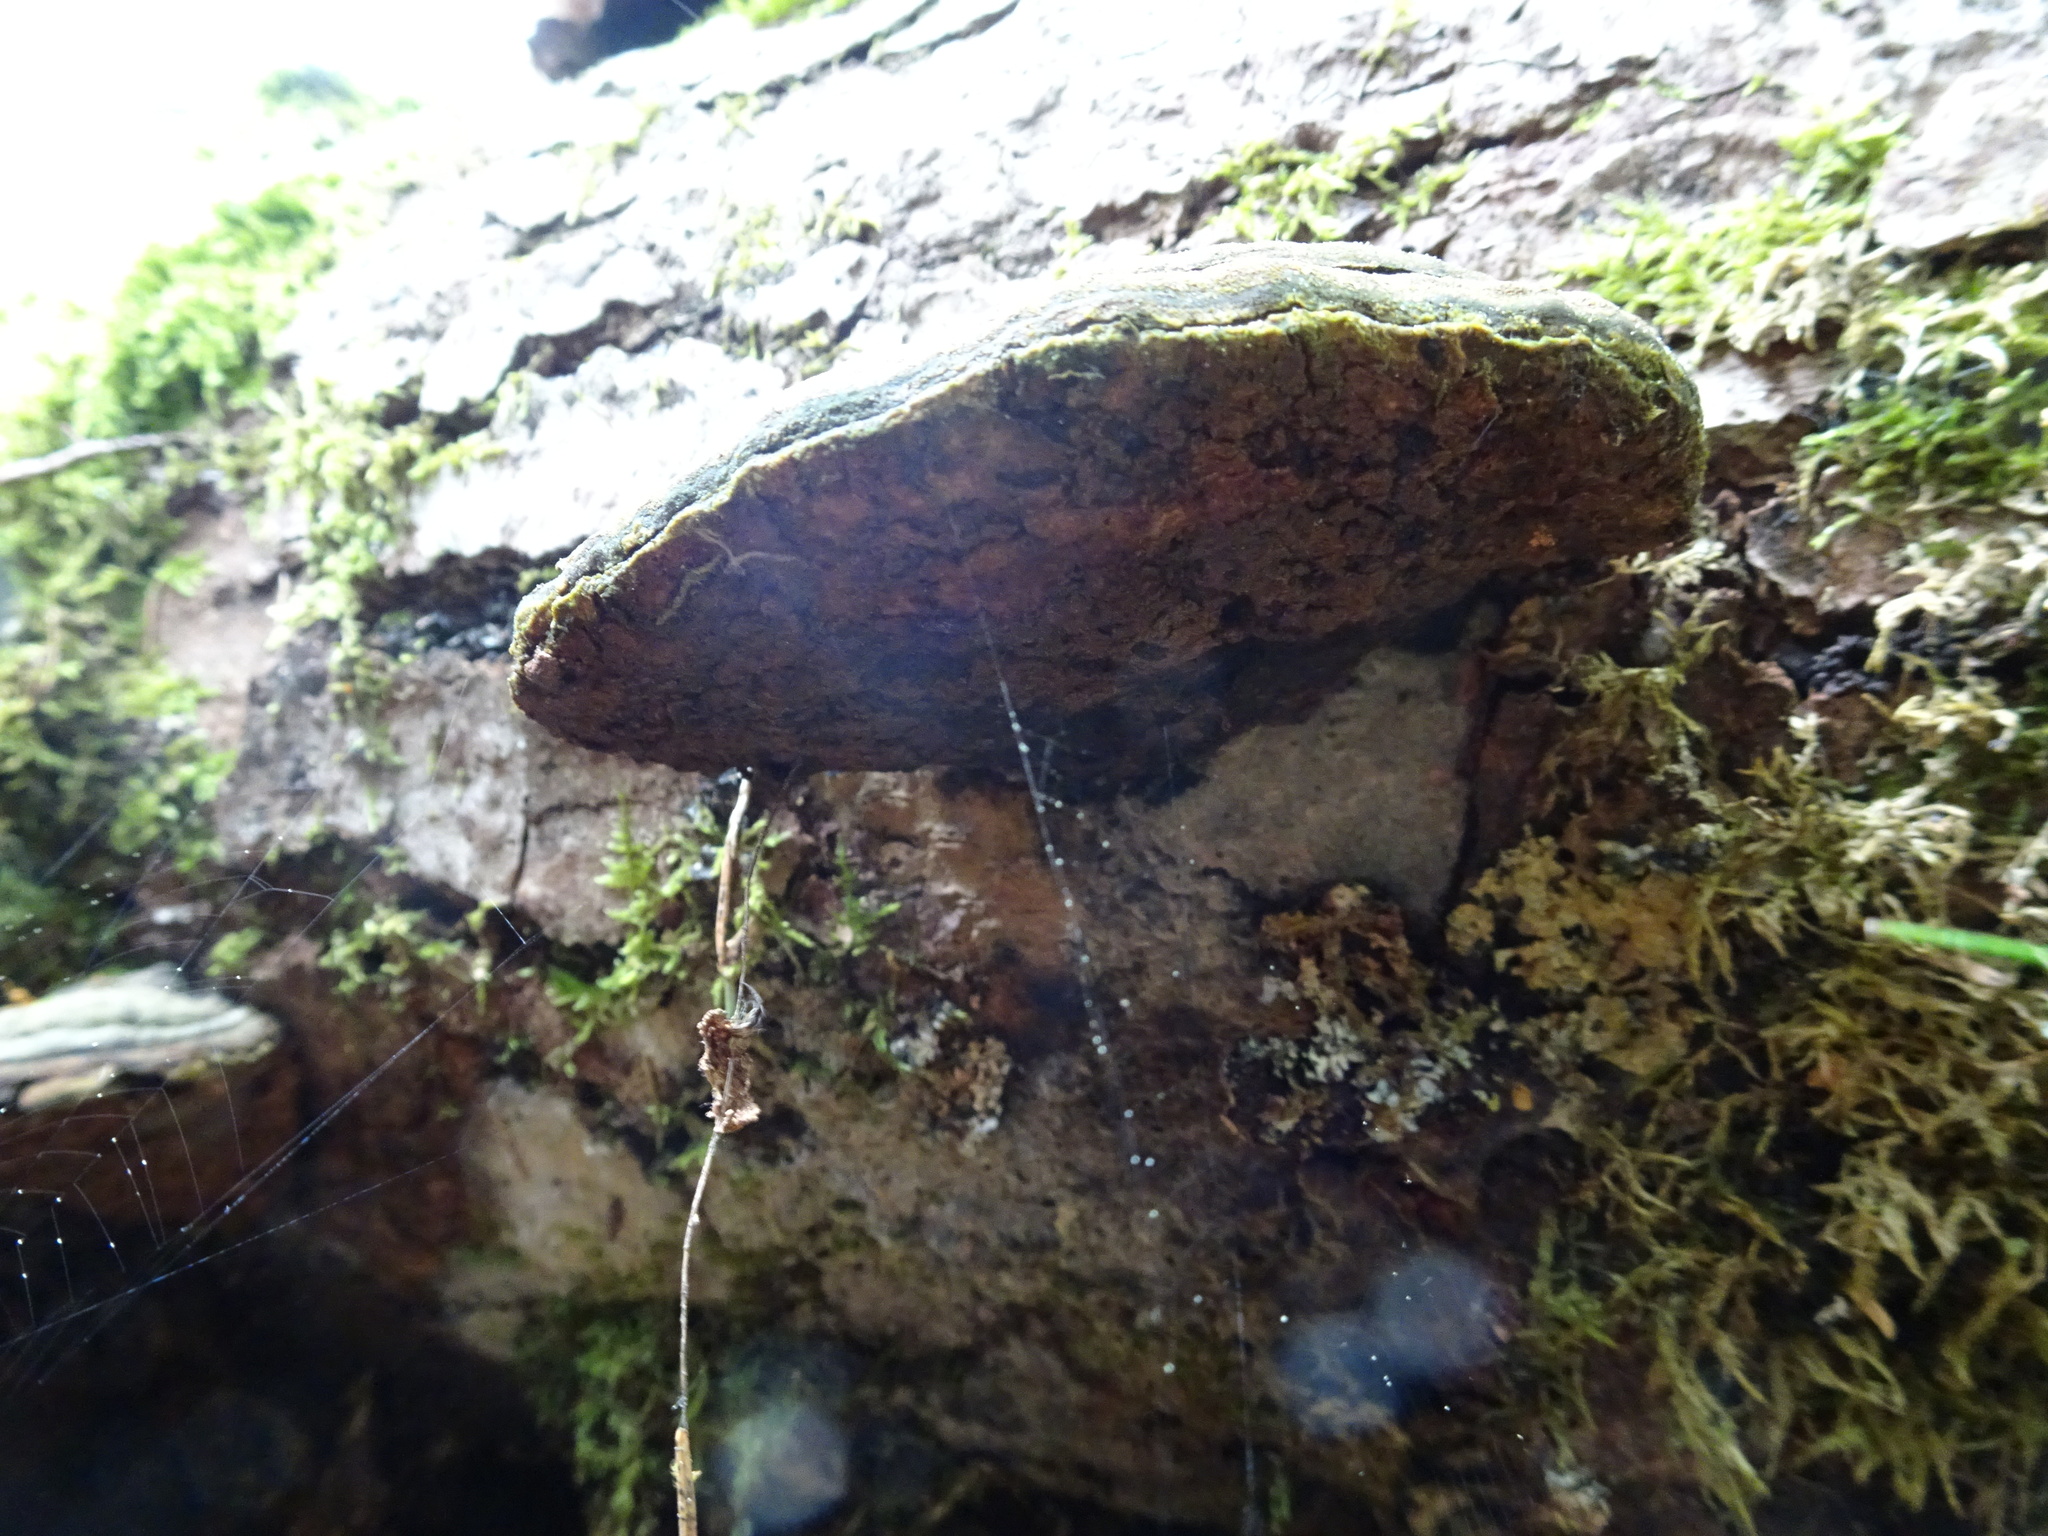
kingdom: Fungi
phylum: Basidiomycota
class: Agaricomycetes
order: Polyporales
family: Polyporaceae
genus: Fomes
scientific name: Fomes fomentarius
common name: Hoof fungus
